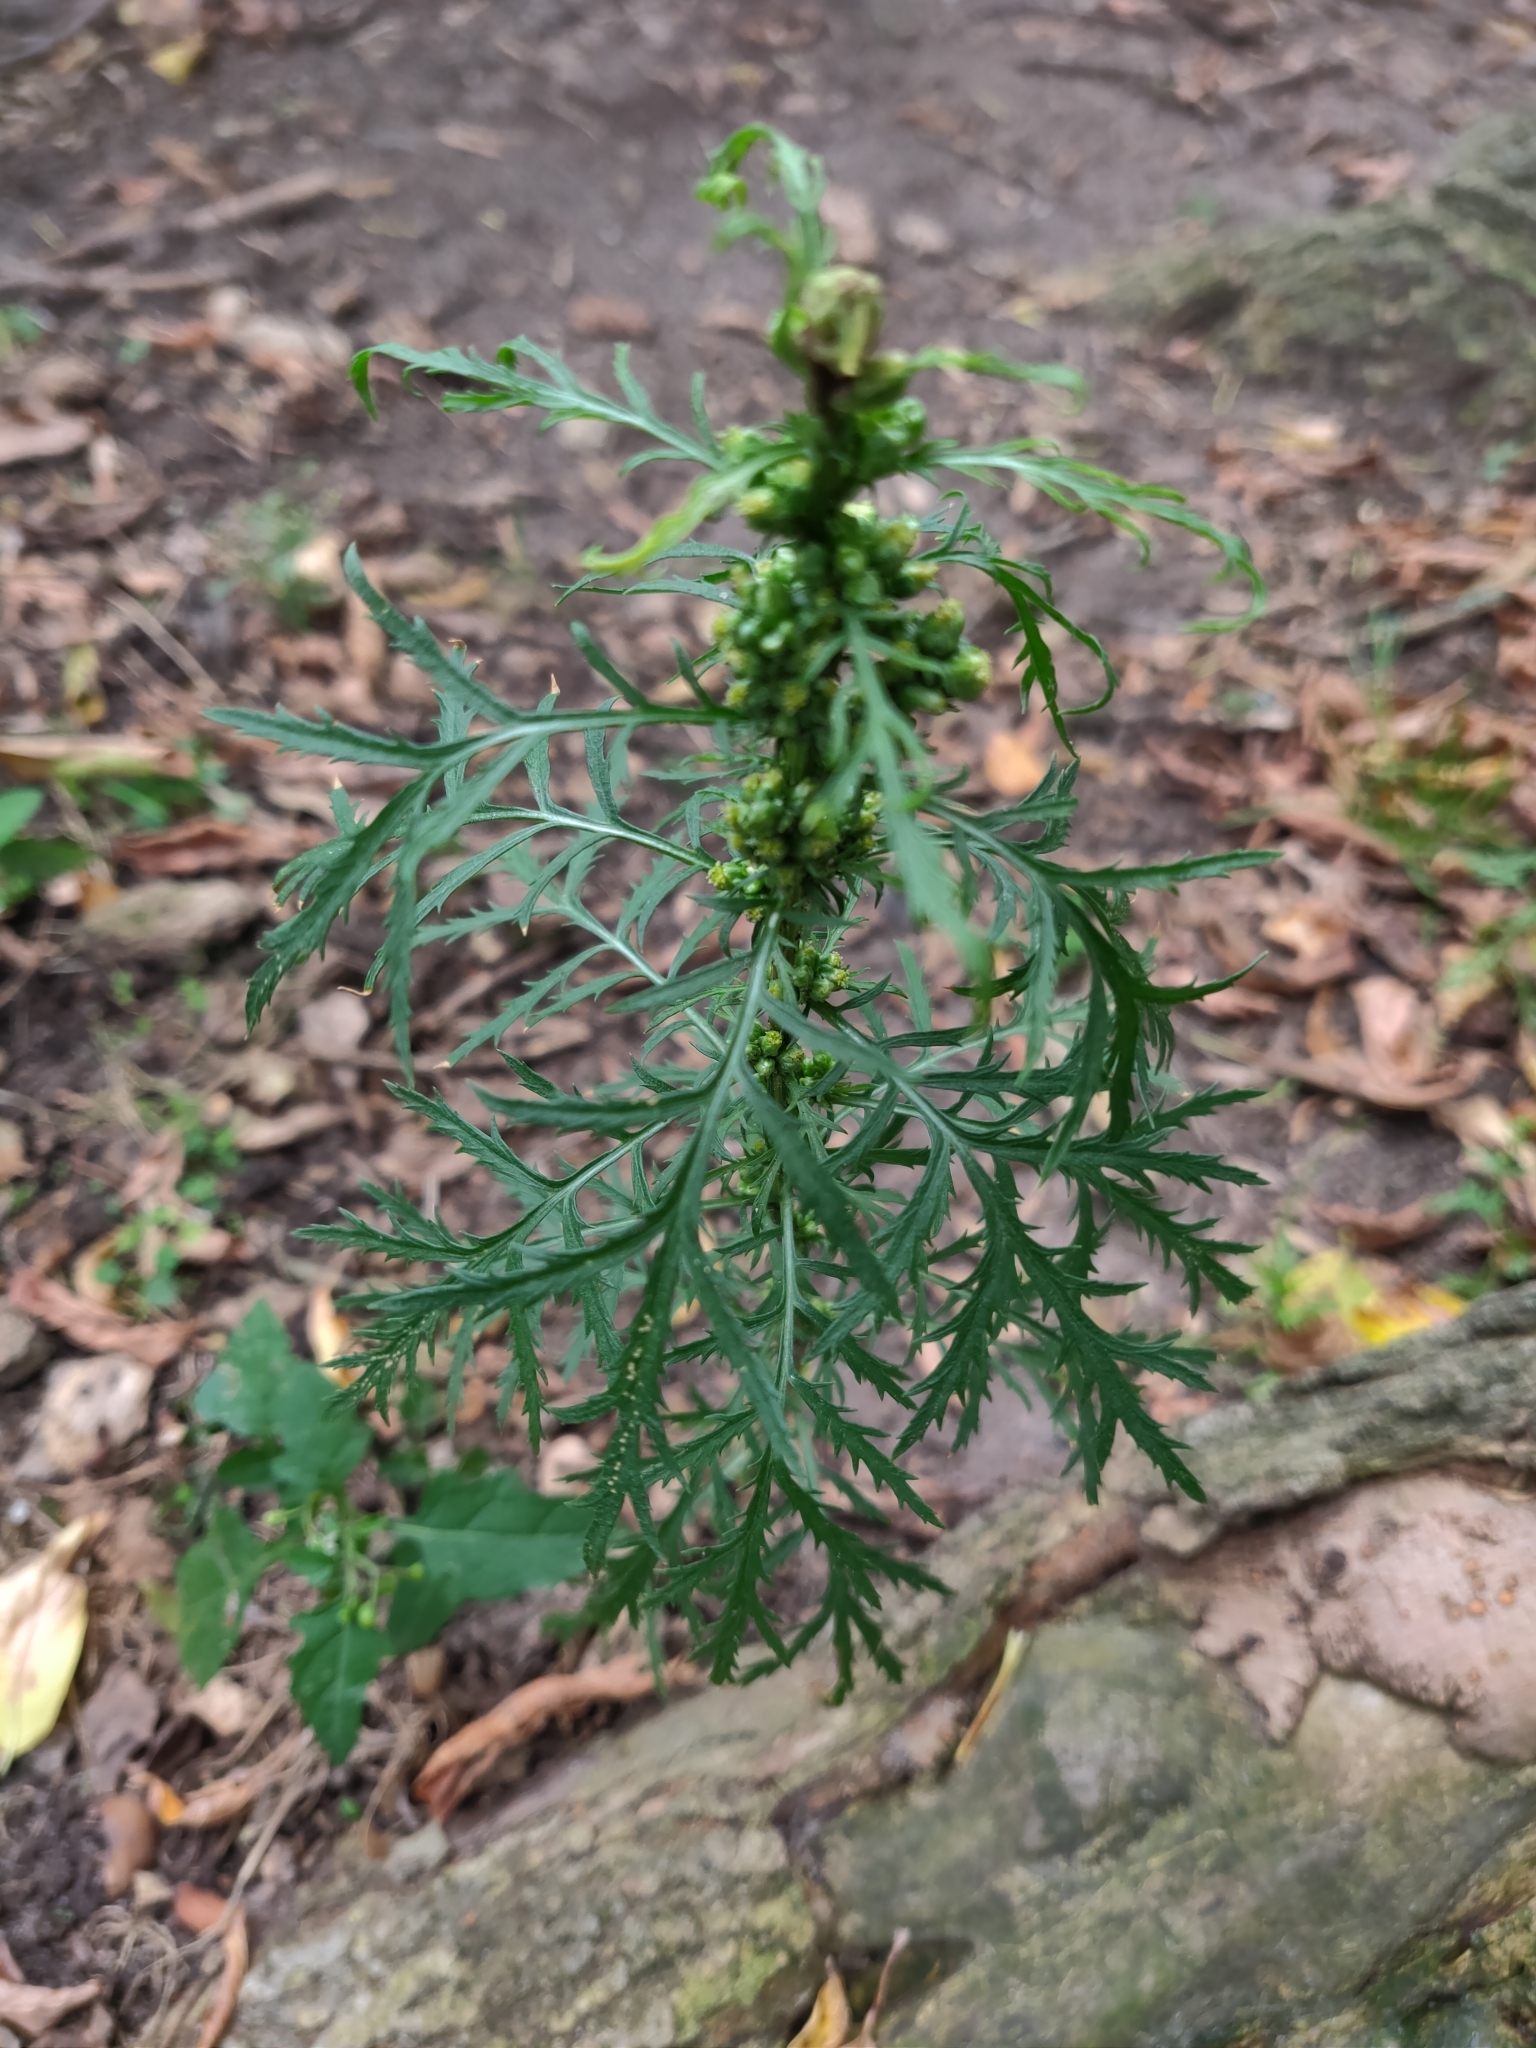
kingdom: Plantae
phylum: Tracheophyta
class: Magnoliopsida
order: Asterales
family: Asteraceae
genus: Artemisia
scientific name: Artemisia biennis
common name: Biennial wormwood
